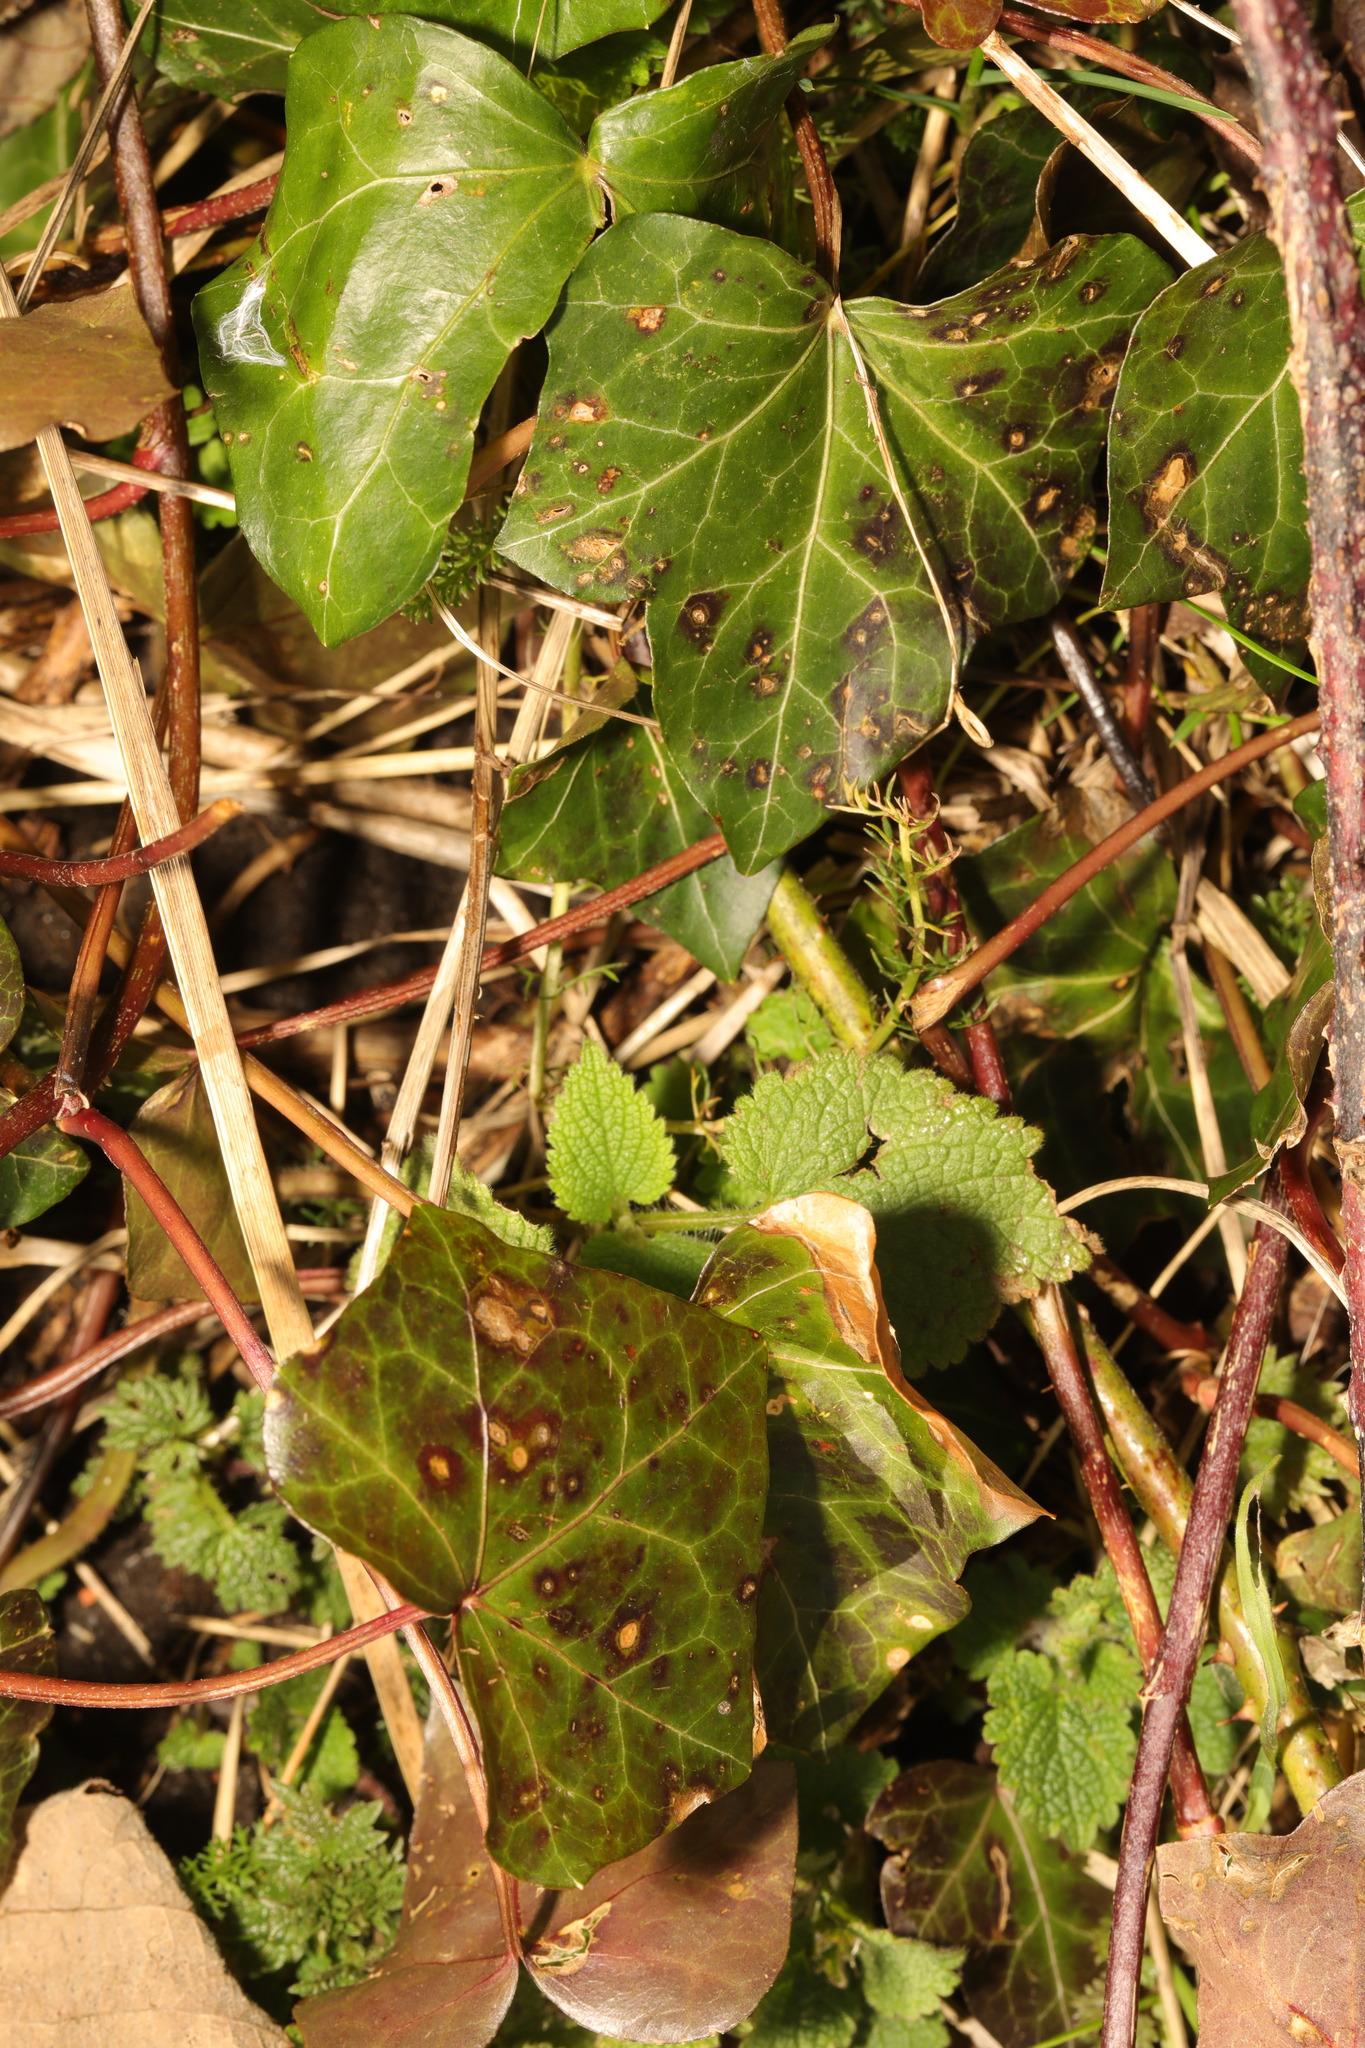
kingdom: Plantae
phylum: Tracheophyta
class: Magnoliopsida
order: Apiales
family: Araliaceae
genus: Hedera
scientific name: Hedera helix
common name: Ivy
